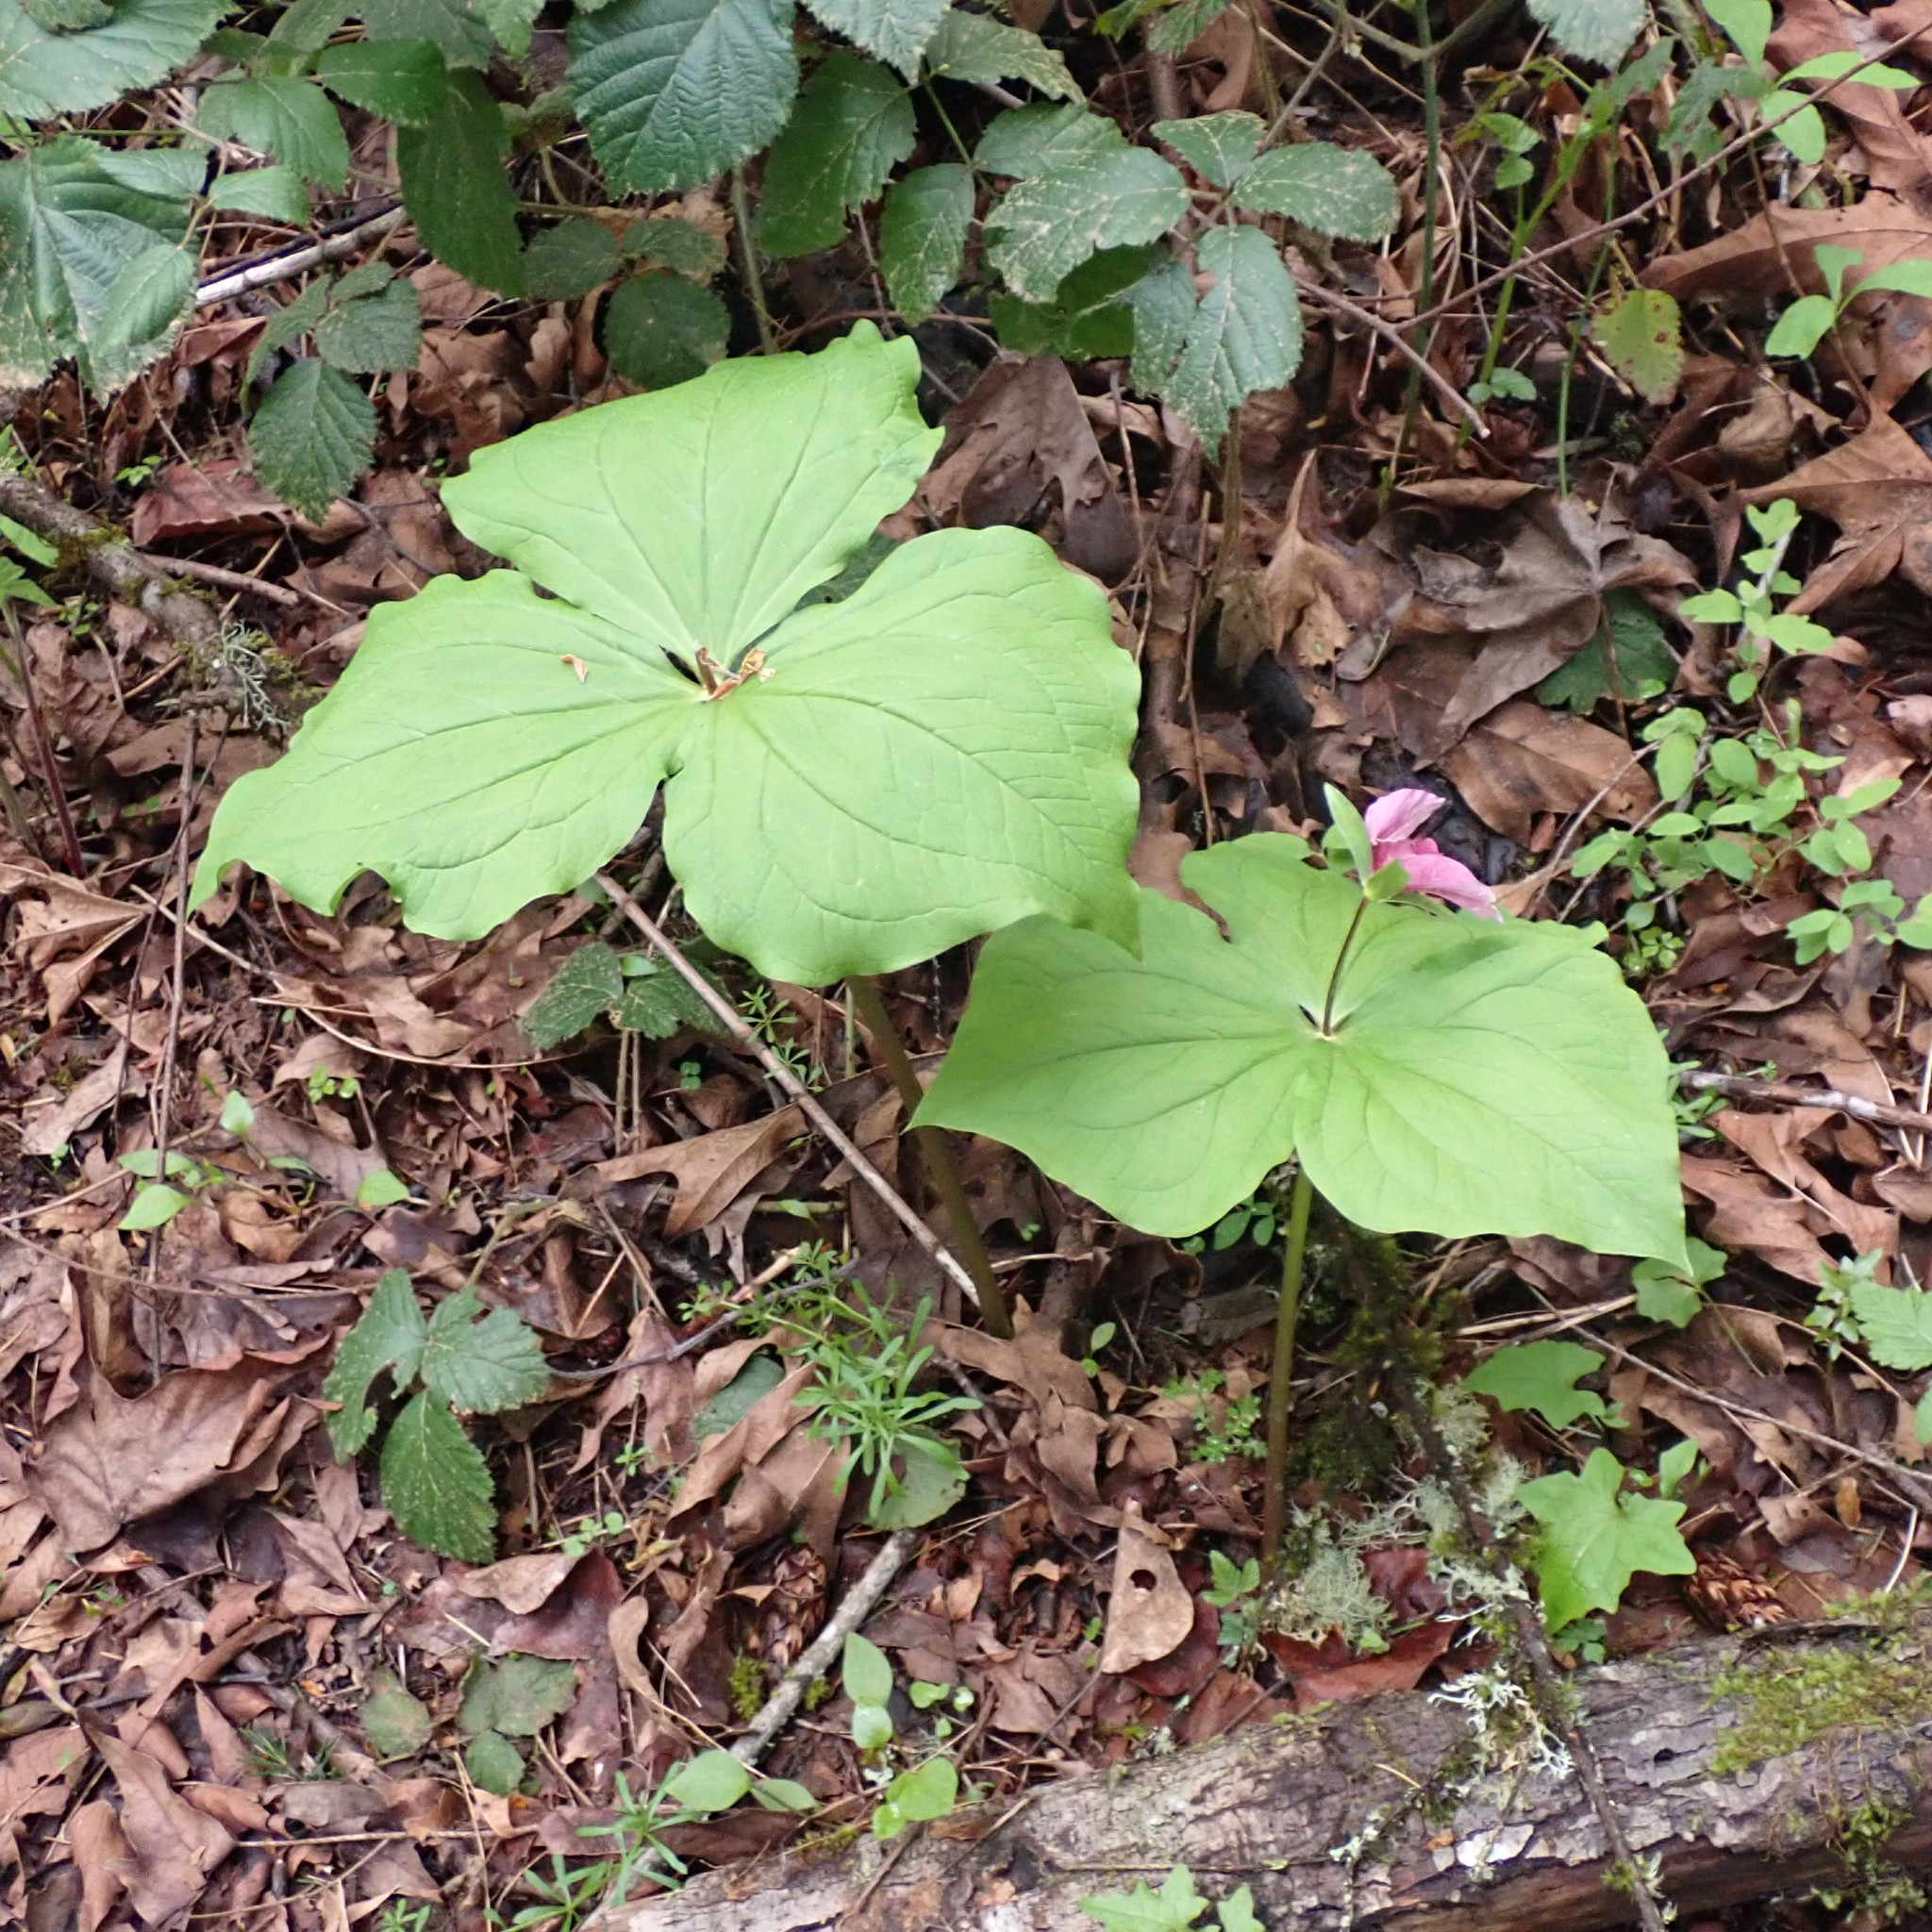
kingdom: Plantae
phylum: Tracheophyta
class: Liliopsida
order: Liliales
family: Melanthiaceae
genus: Trillium
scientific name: Trillium ovatum
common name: Pacific trillium
